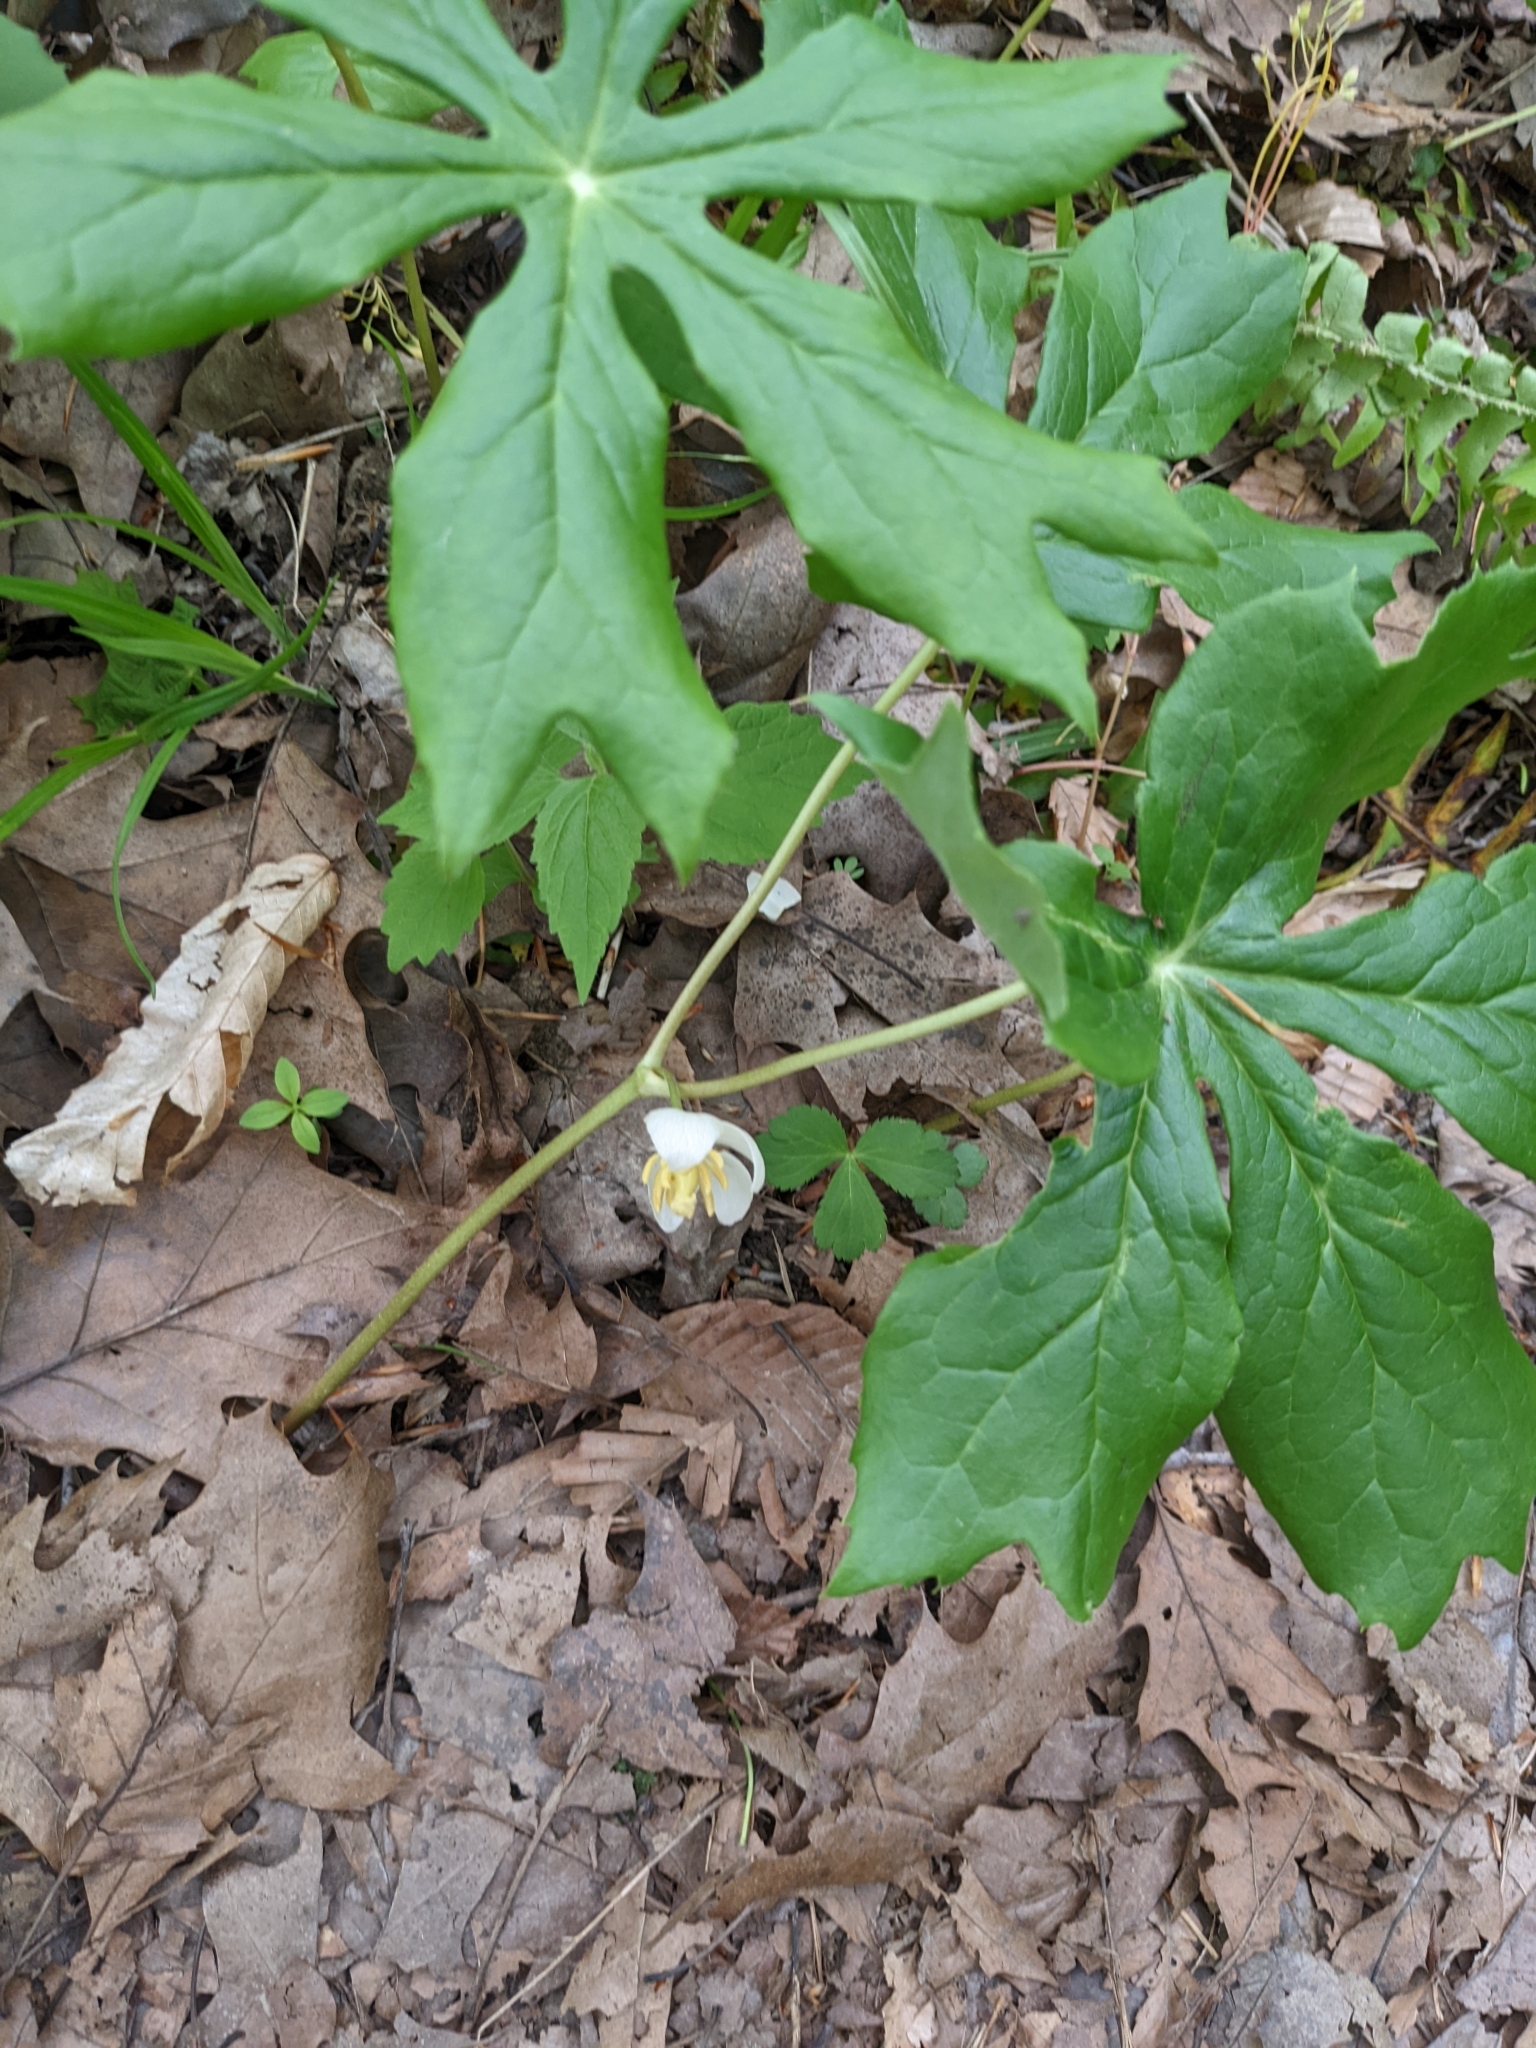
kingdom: Plantae
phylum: Tracheophyta
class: Magnoliopsida
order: Ranunculales
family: Berberidaceae
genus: Podophyllum
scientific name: Podophyllum peltatum
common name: Wild mandrake
